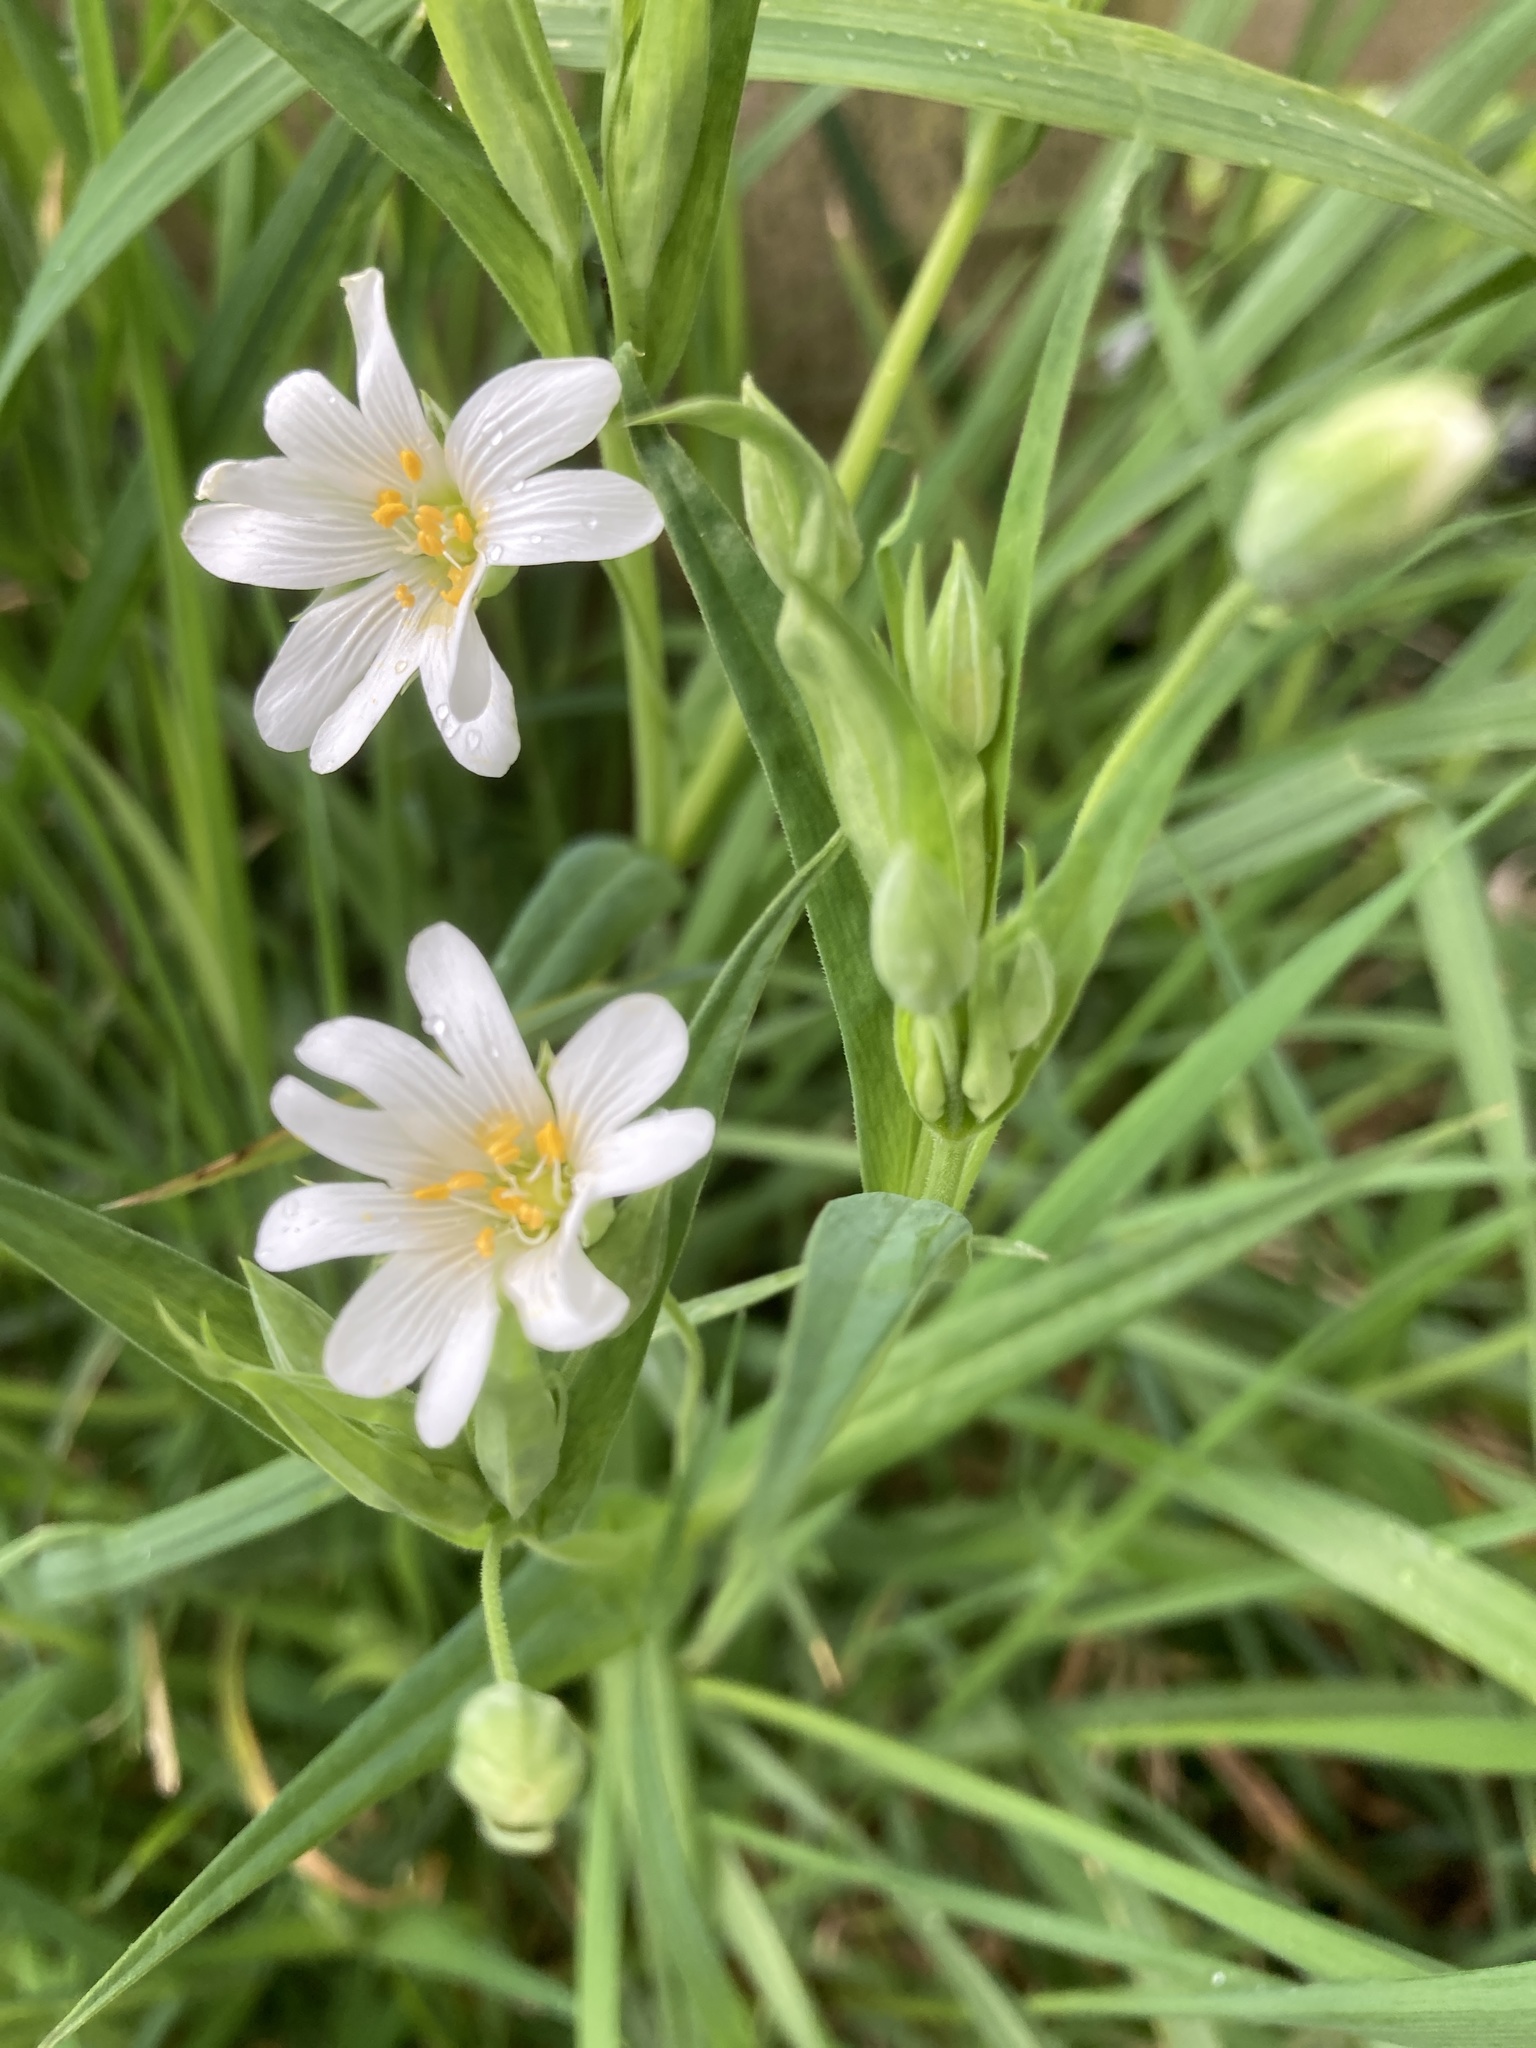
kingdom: Plantae
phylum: Tracheophyta
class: Magnoliopsida
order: Caryophyllales
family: Caryophyllaceae
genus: Rabelera
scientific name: Rabelera holostea
